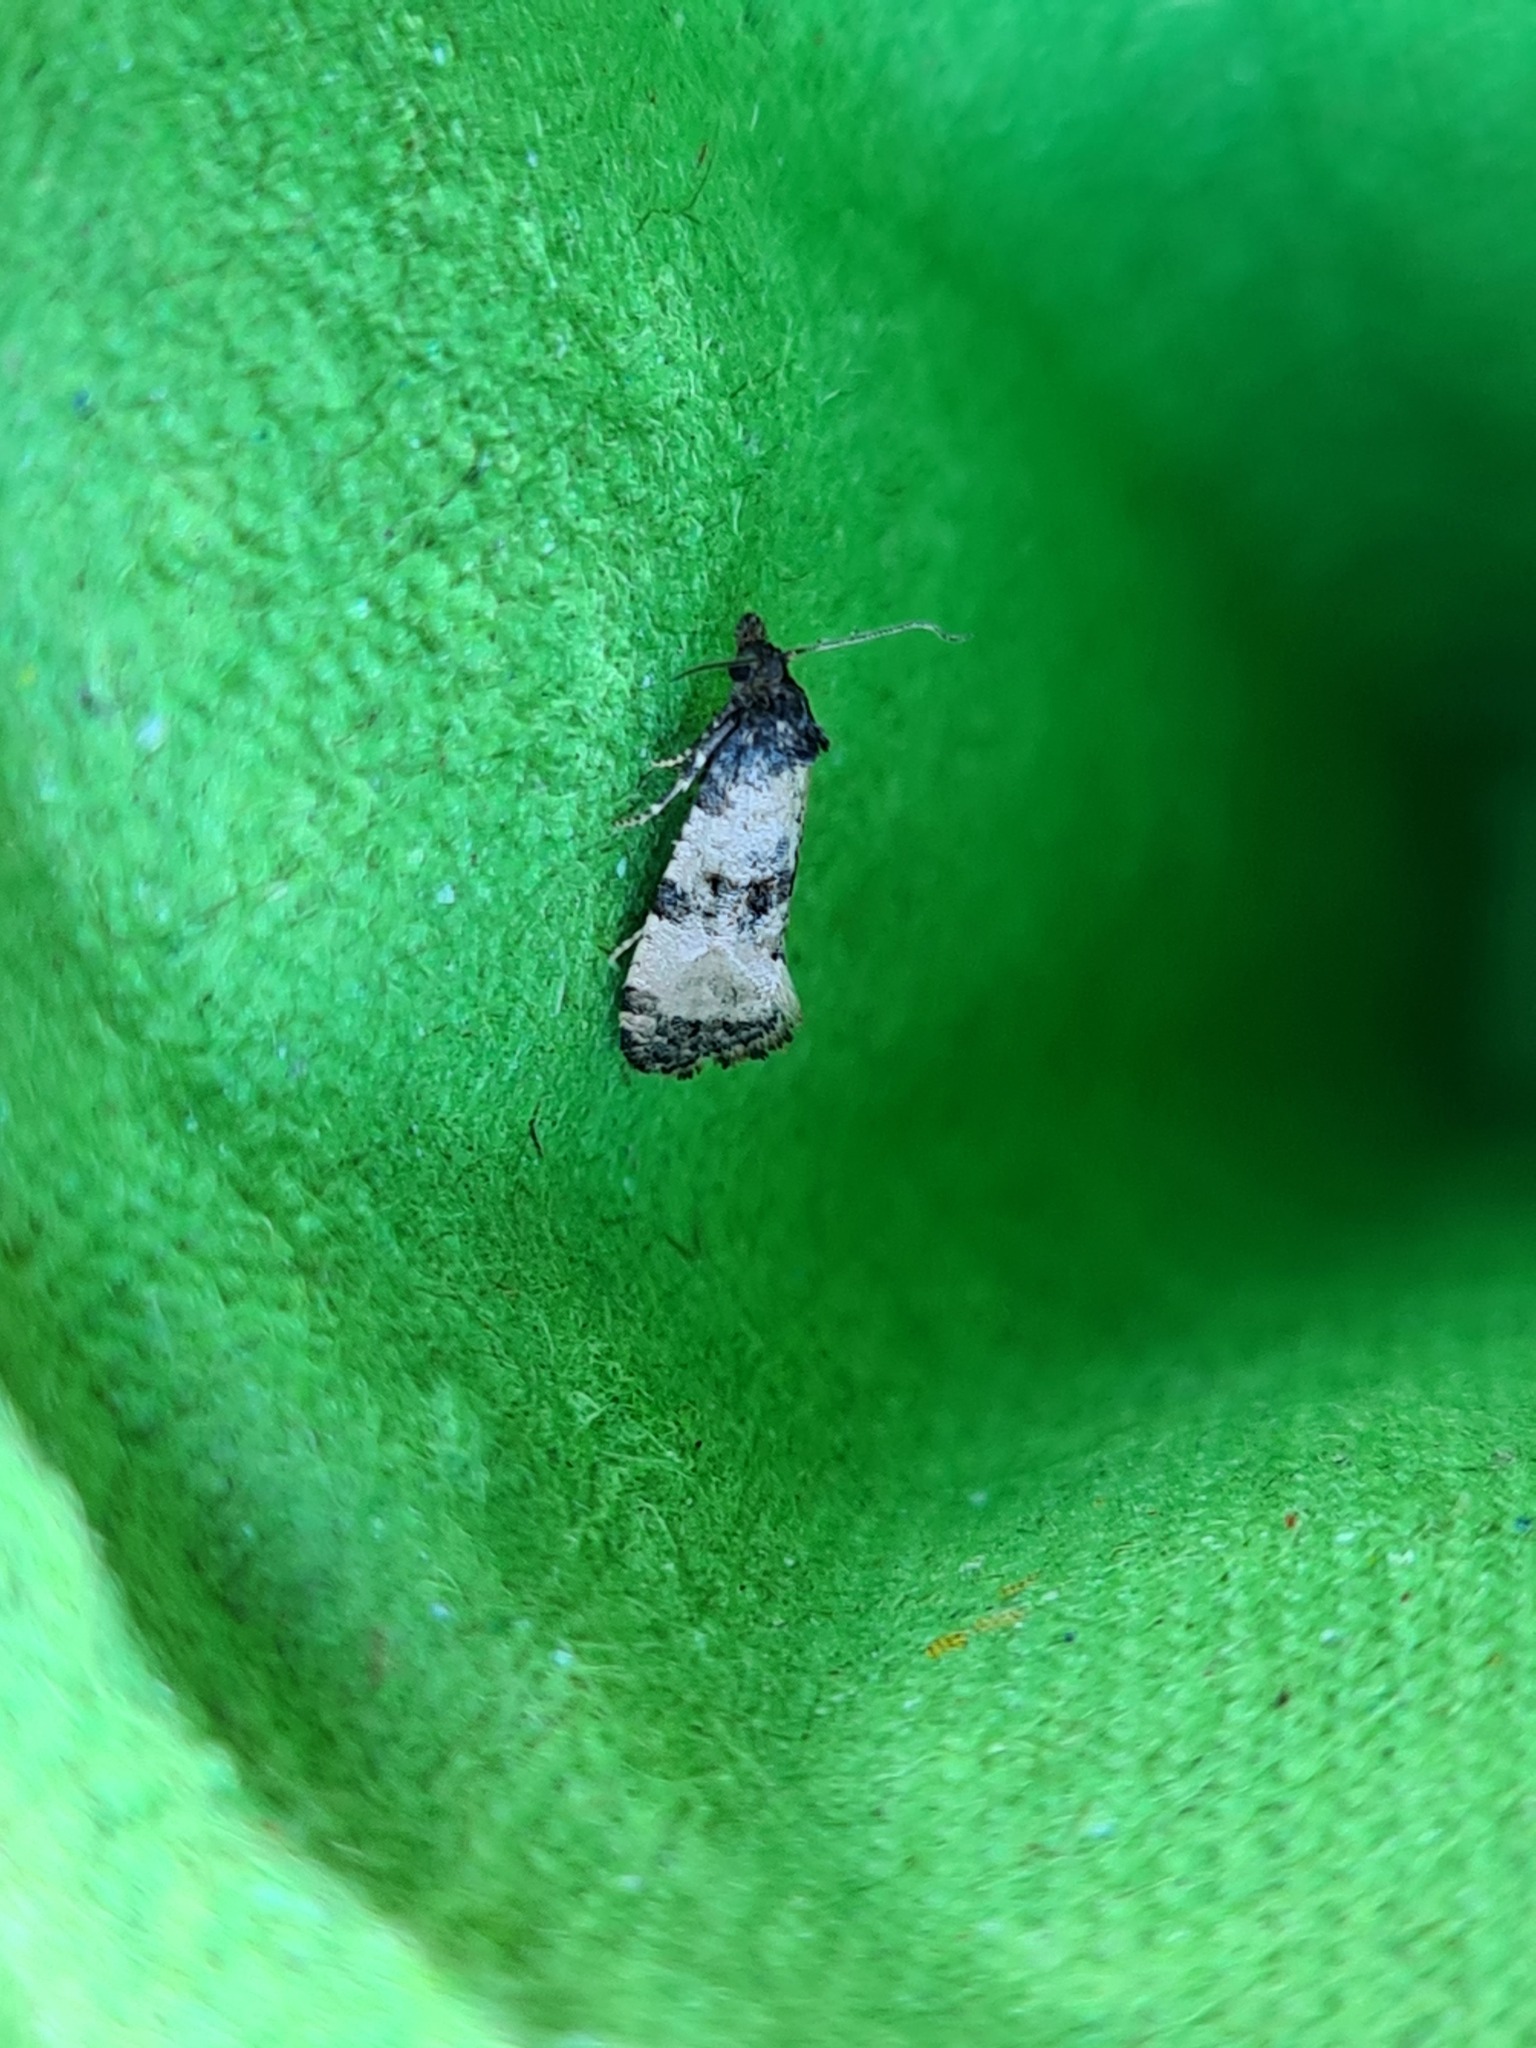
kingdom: Animalia
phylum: Arthropoda
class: Insecta
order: Lepidoptera
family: Tortricidae
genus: Cochylis
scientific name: Cochylis atricapitana
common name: Tortricid moth
